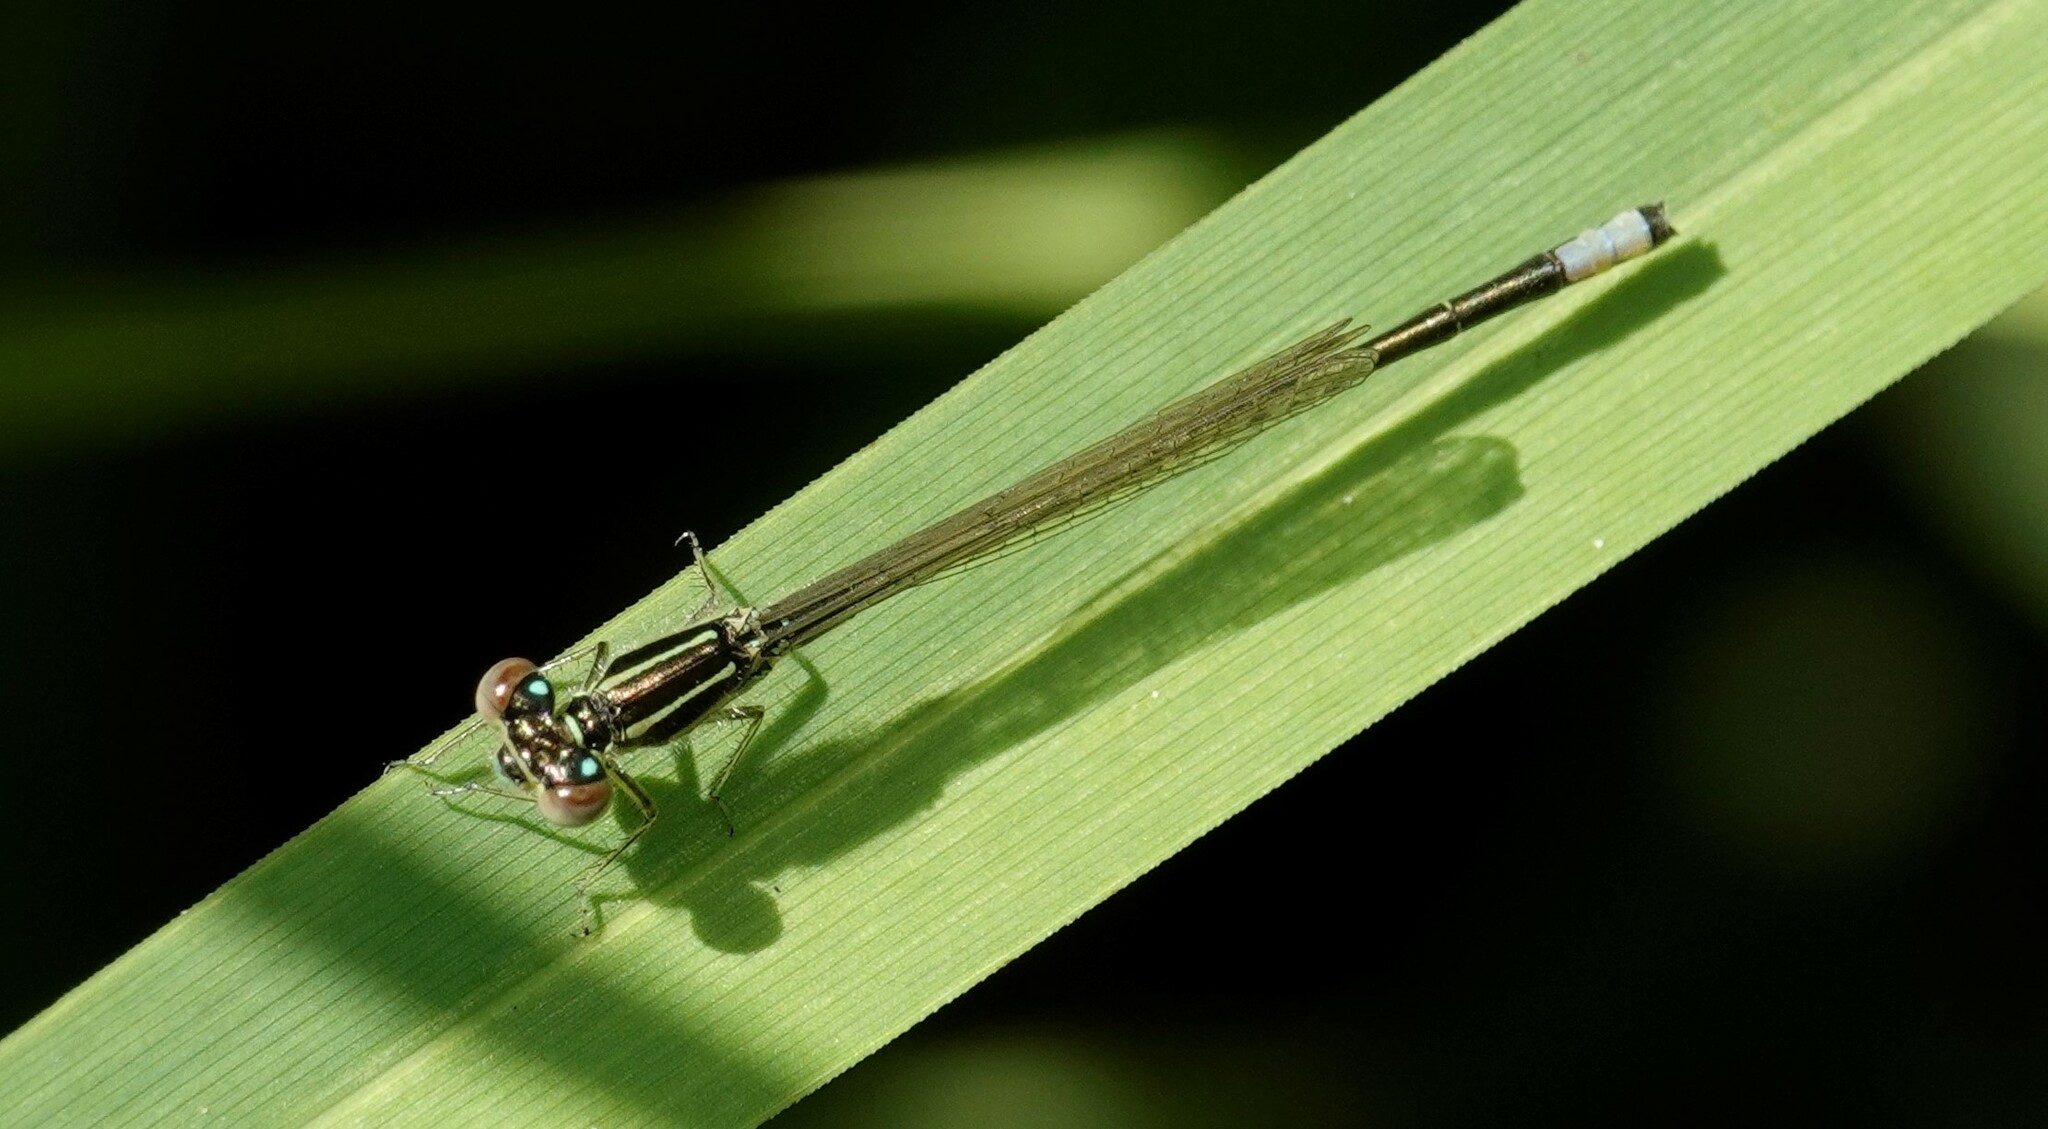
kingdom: Animalia
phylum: Arthropoda
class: Insecta
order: Odonata
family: Coenagrionidae
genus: Ischnura
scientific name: Ischnura verticalis
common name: Eastern forktail
